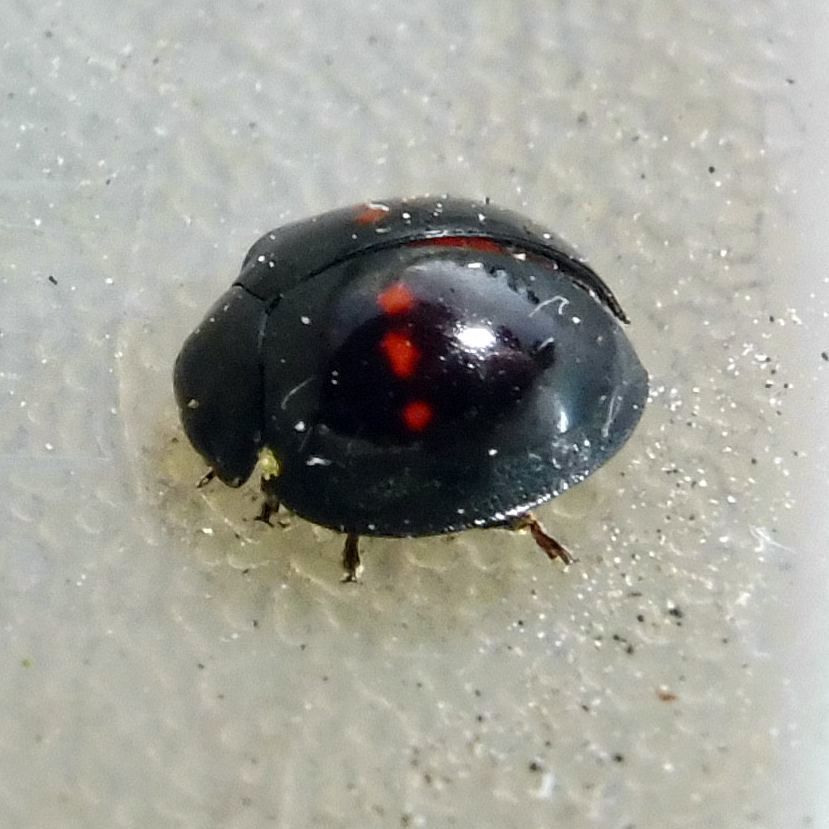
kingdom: Animalia
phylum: Arthropoda
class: Insecta
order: Coleoptera
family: Coccinellidae
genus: Chilocorus
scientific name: Chilocorus bipustulatus
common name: Heather ladybird
